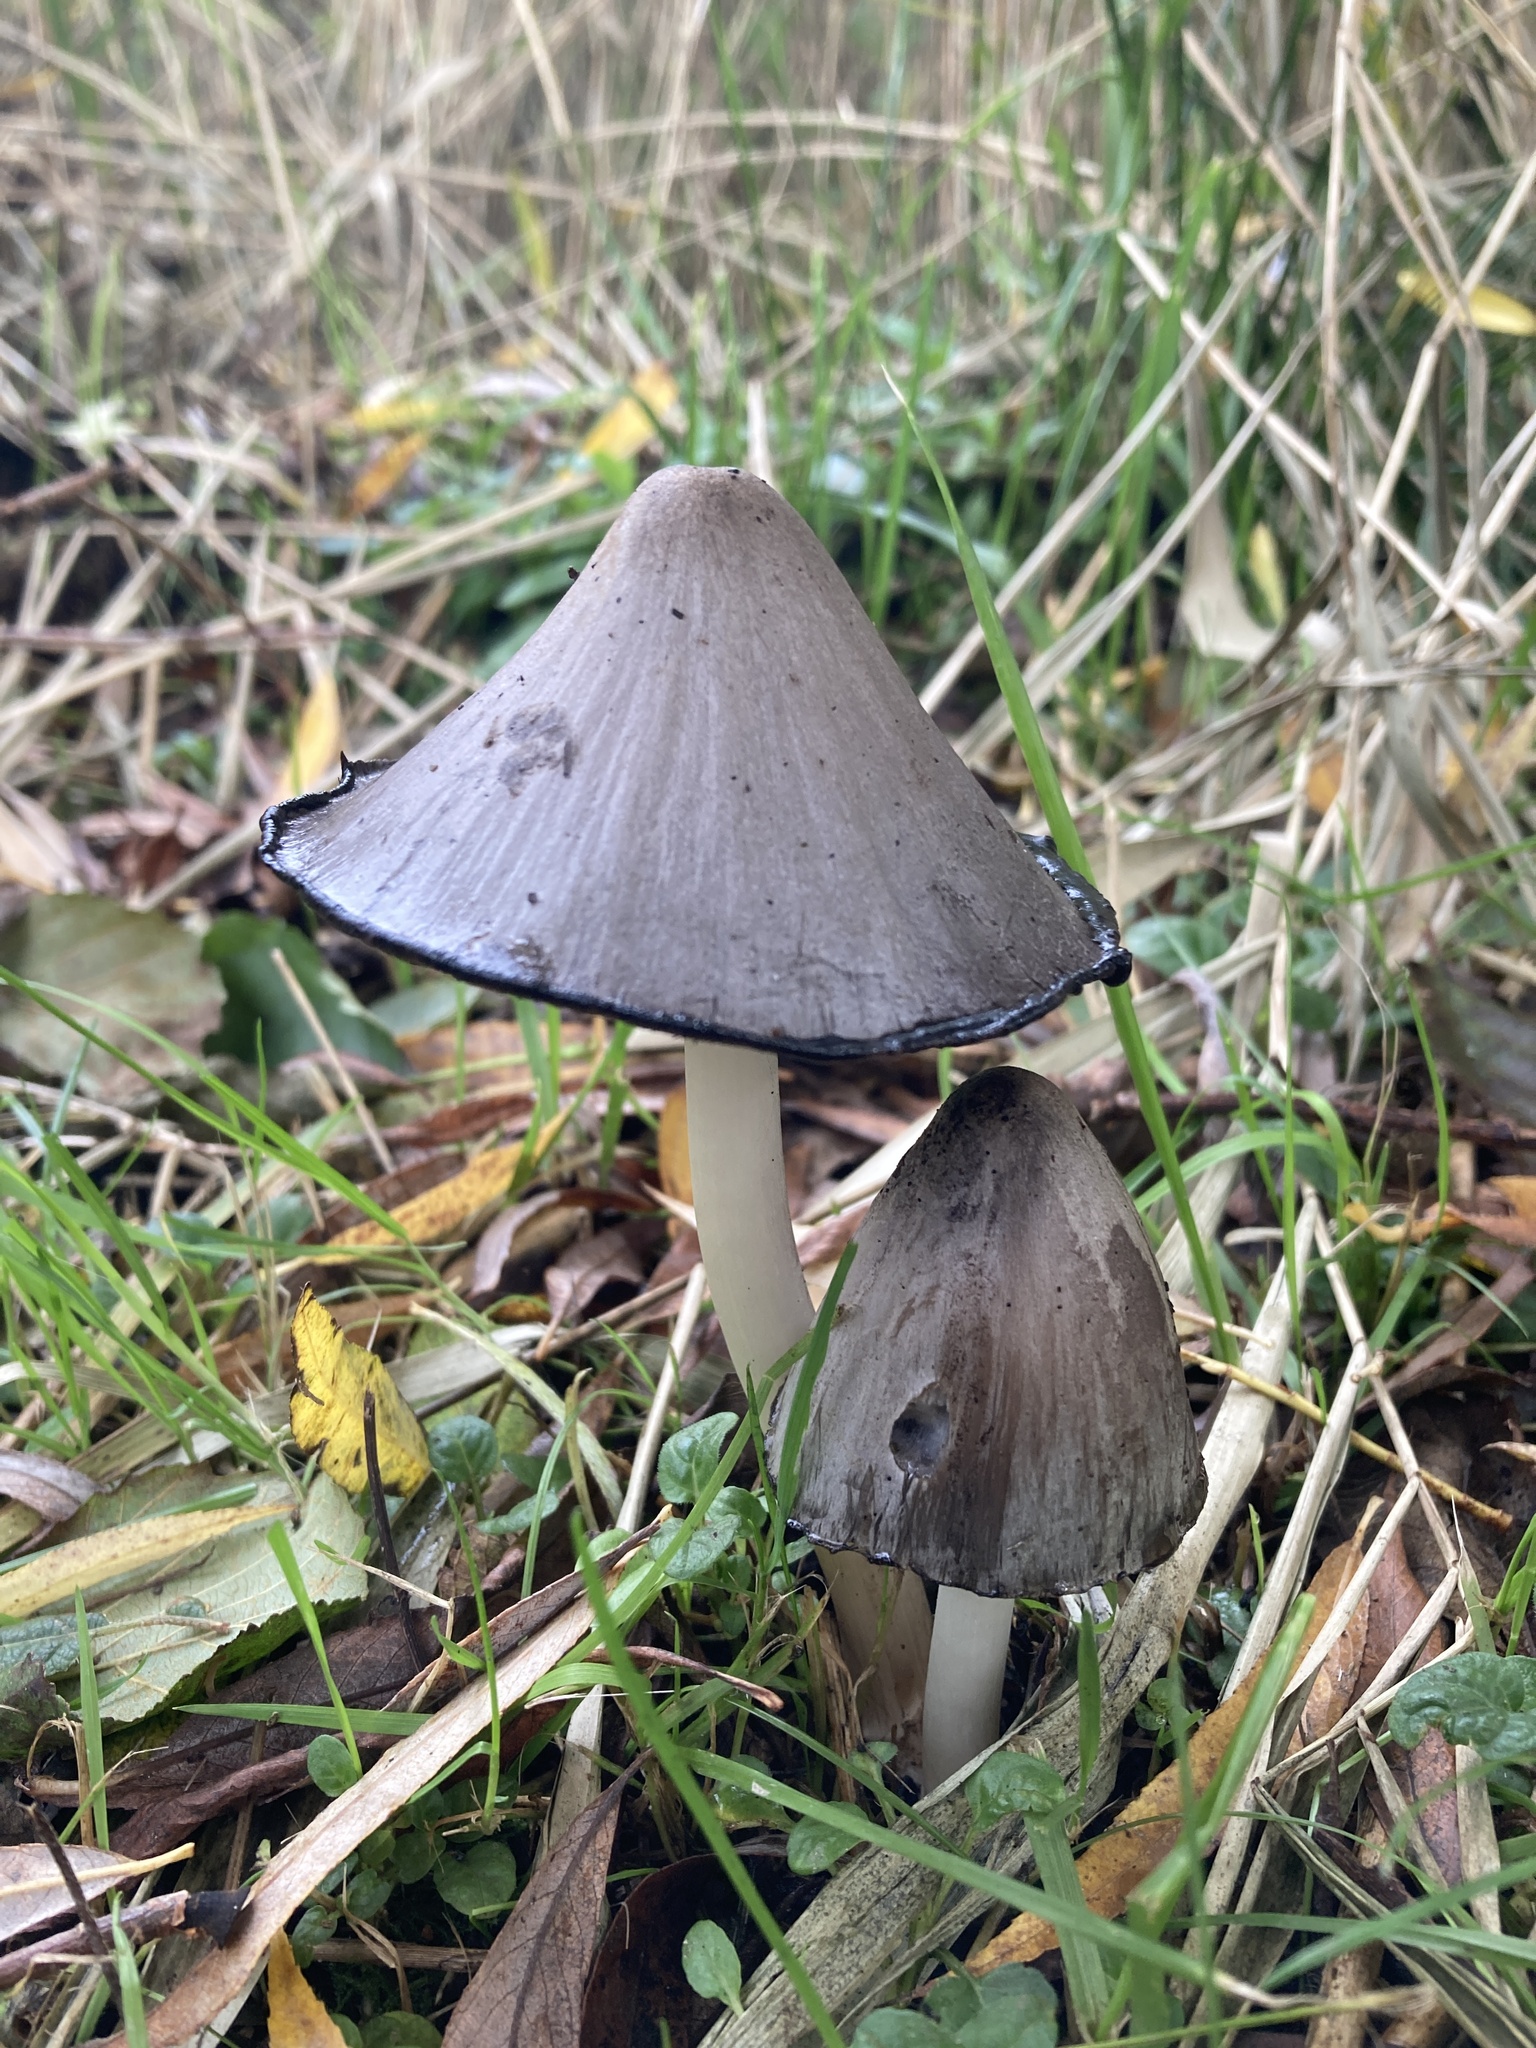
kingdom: Fungi
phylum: Basidiomycota
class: Agaricomycetes
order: Agaricales
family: Psathyrellaceae
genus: Coprinopsis
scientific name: Coprinopsis atramentaria
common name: Common ink-cap
